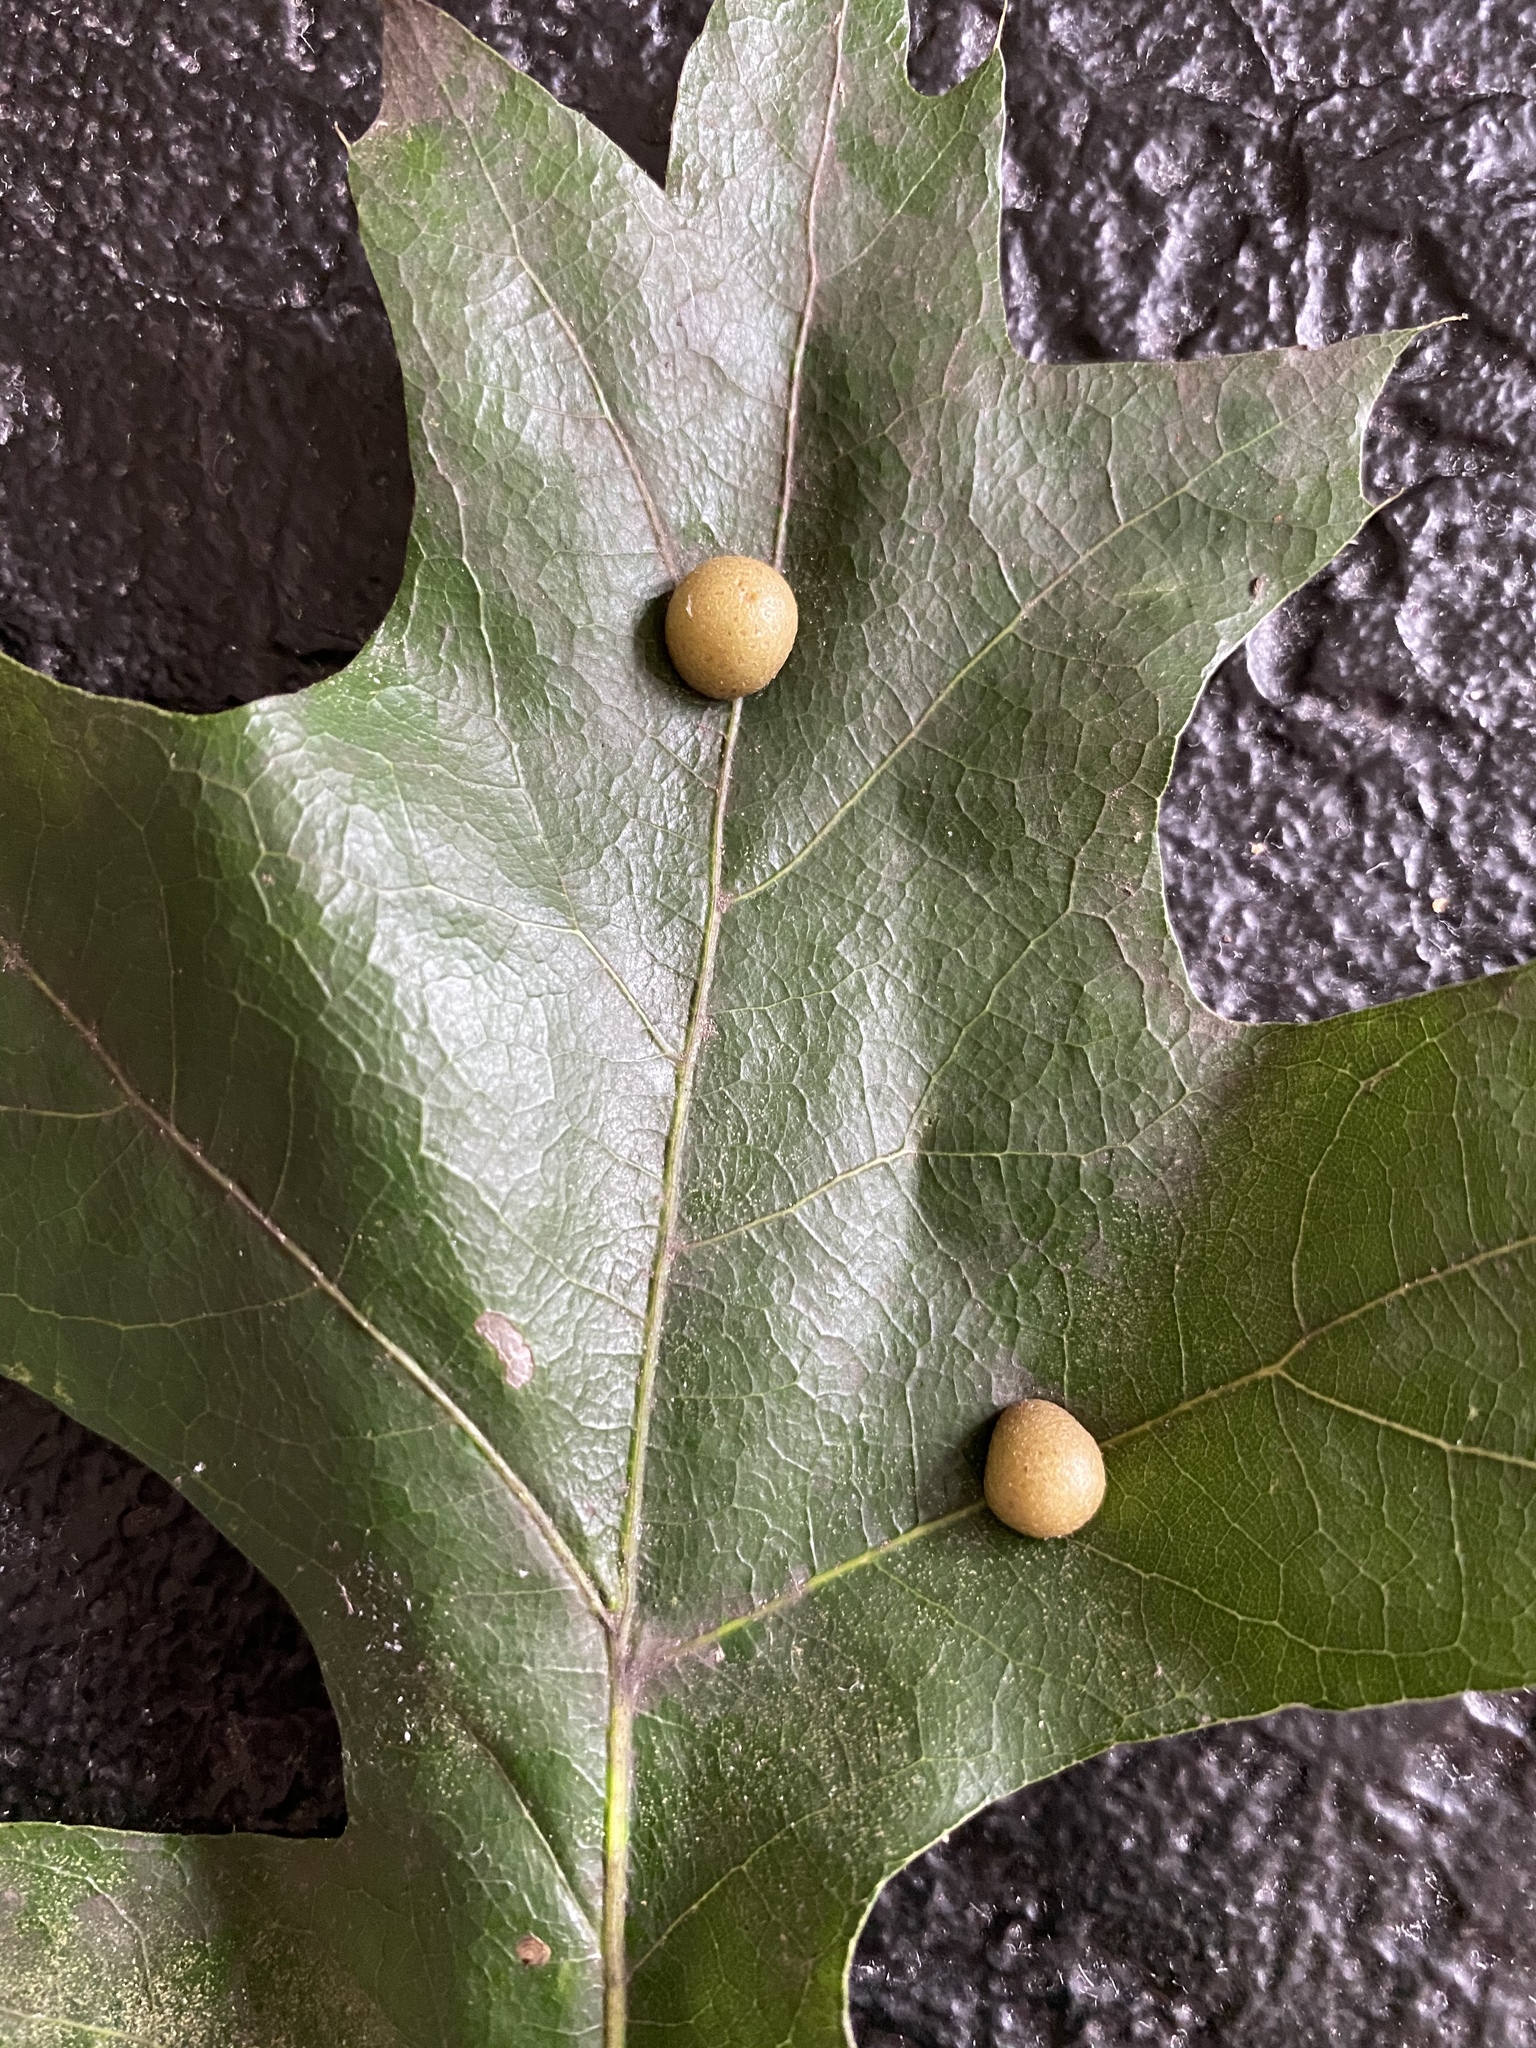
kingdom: Animalia
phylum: Arthropoda
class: Insecta
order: Diptera
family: Cecidomyiidae
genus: Polystepha
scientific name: Polystepha pilulae
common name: Oak leaf gall midge
